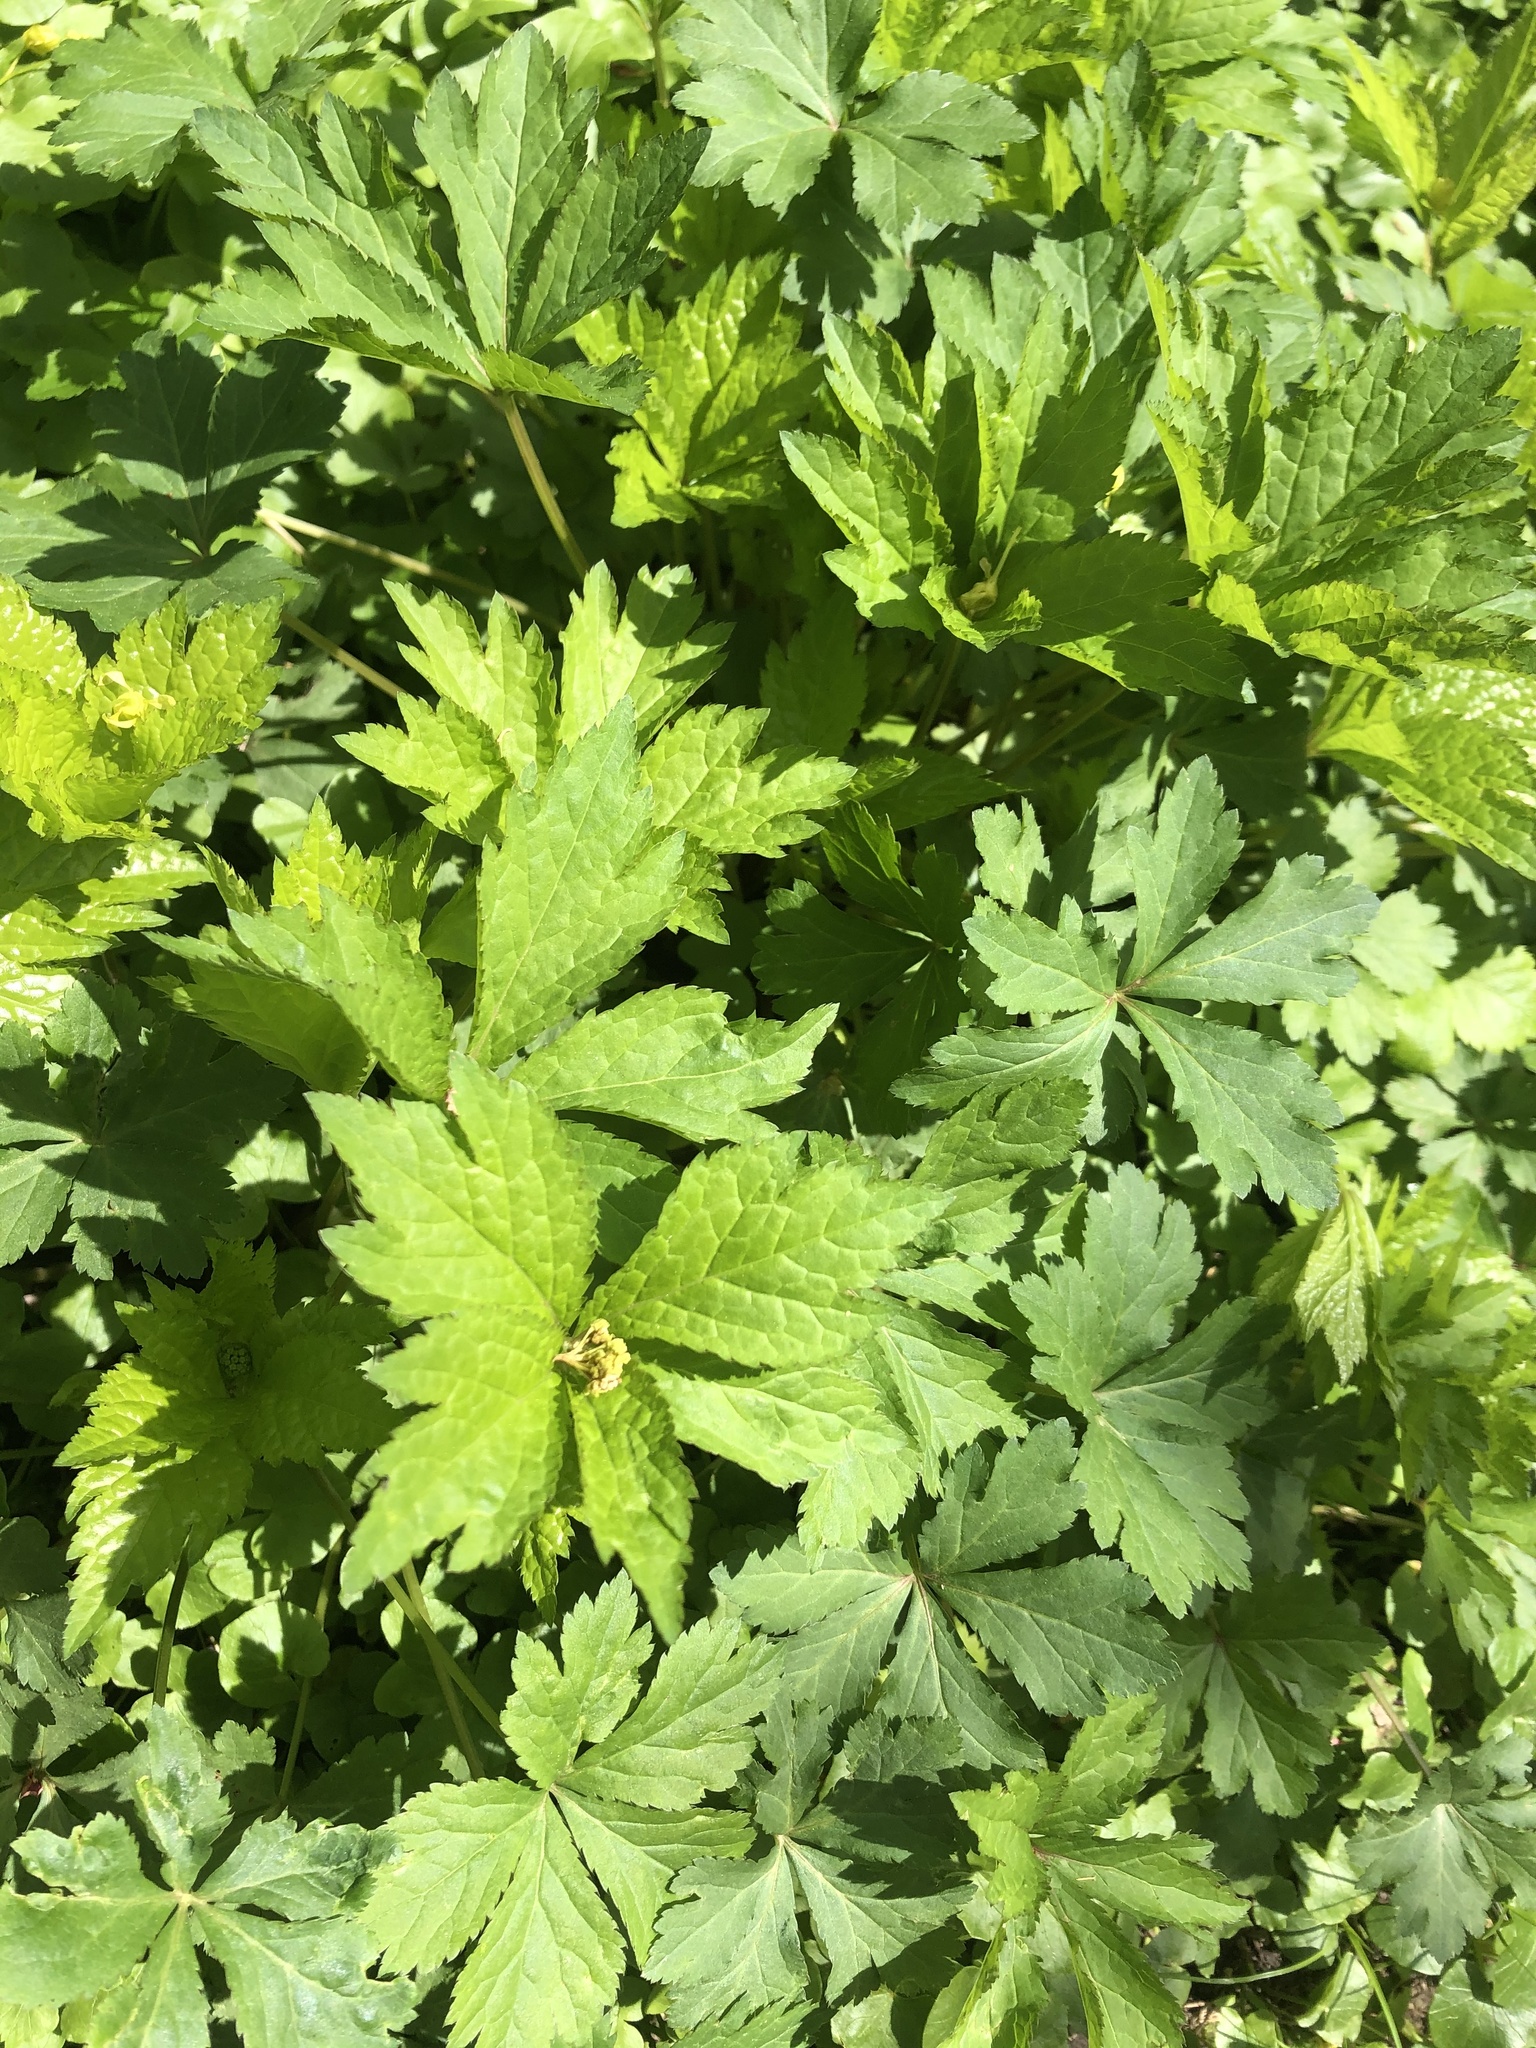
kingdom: Plantae
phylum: Tracheophyta
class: Magnoliopsida
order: Apiales
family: Apiaceae
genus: Sanicula
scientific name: Sanicula odorata
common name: Cluster sanicle
